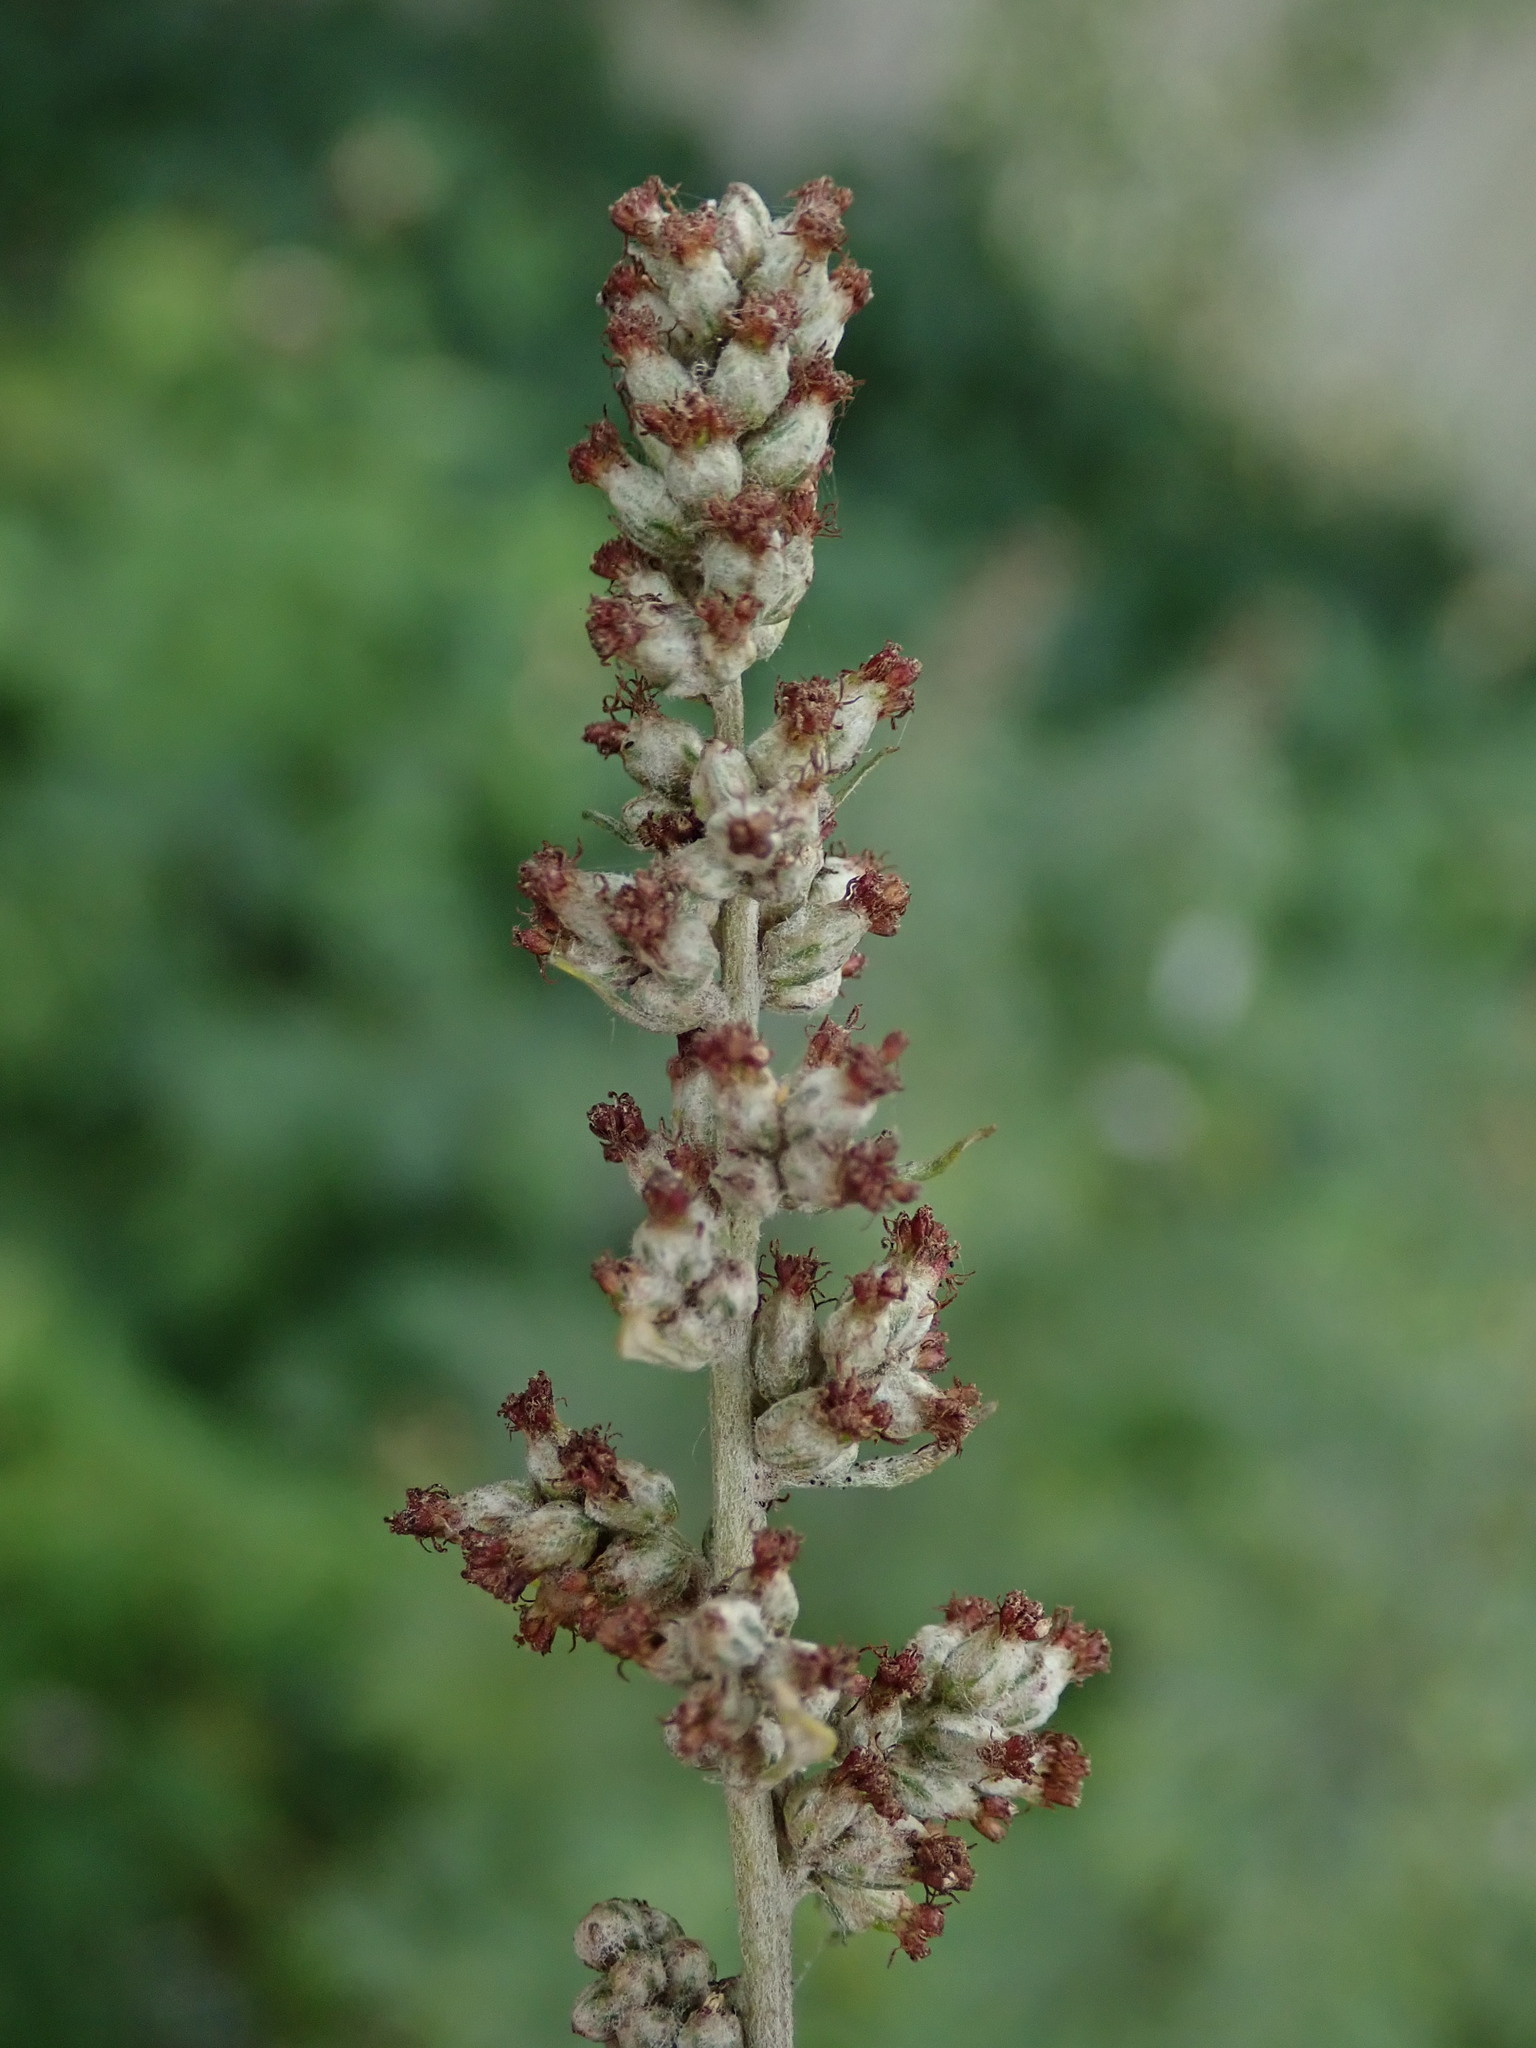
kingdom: Plantae
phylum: Tracheophyta
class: Magnoliopsida
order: Asterales
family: Asteraceae
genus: Artemisia
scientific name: Artemisia vulgaris
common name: Mugwort
